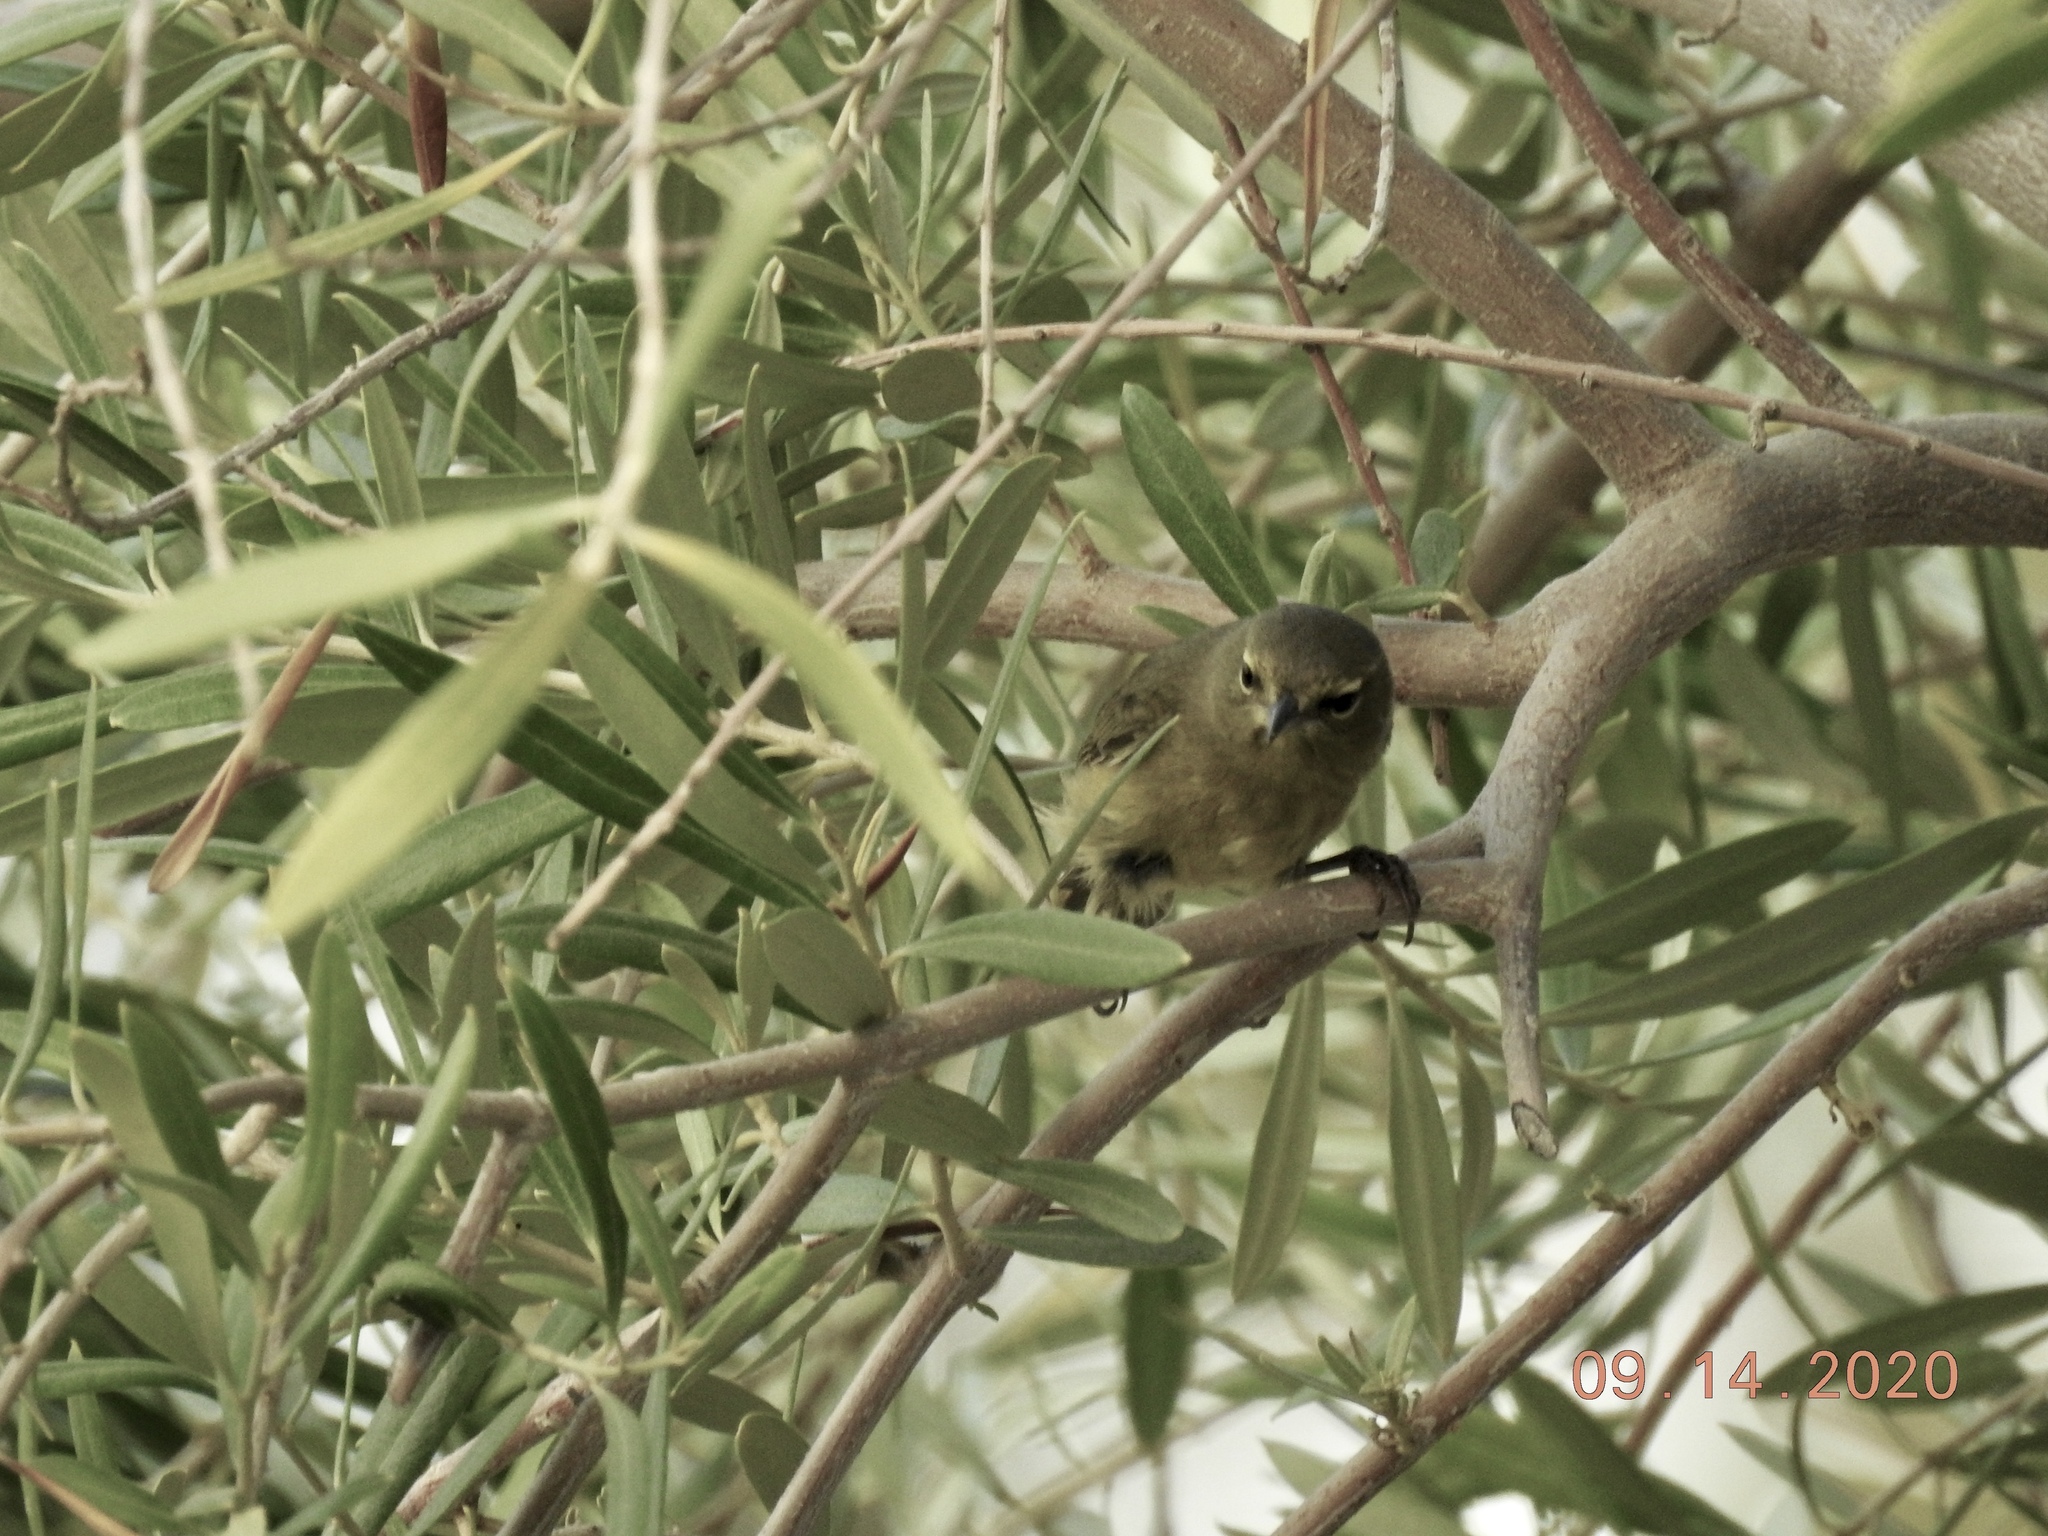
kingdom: Animalia
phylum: Chordata
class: Aves
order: Passeriformes
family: Parulidae
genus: Leiothlypis
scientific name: Leiothlypis celata
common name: Orange-crowned warbler
